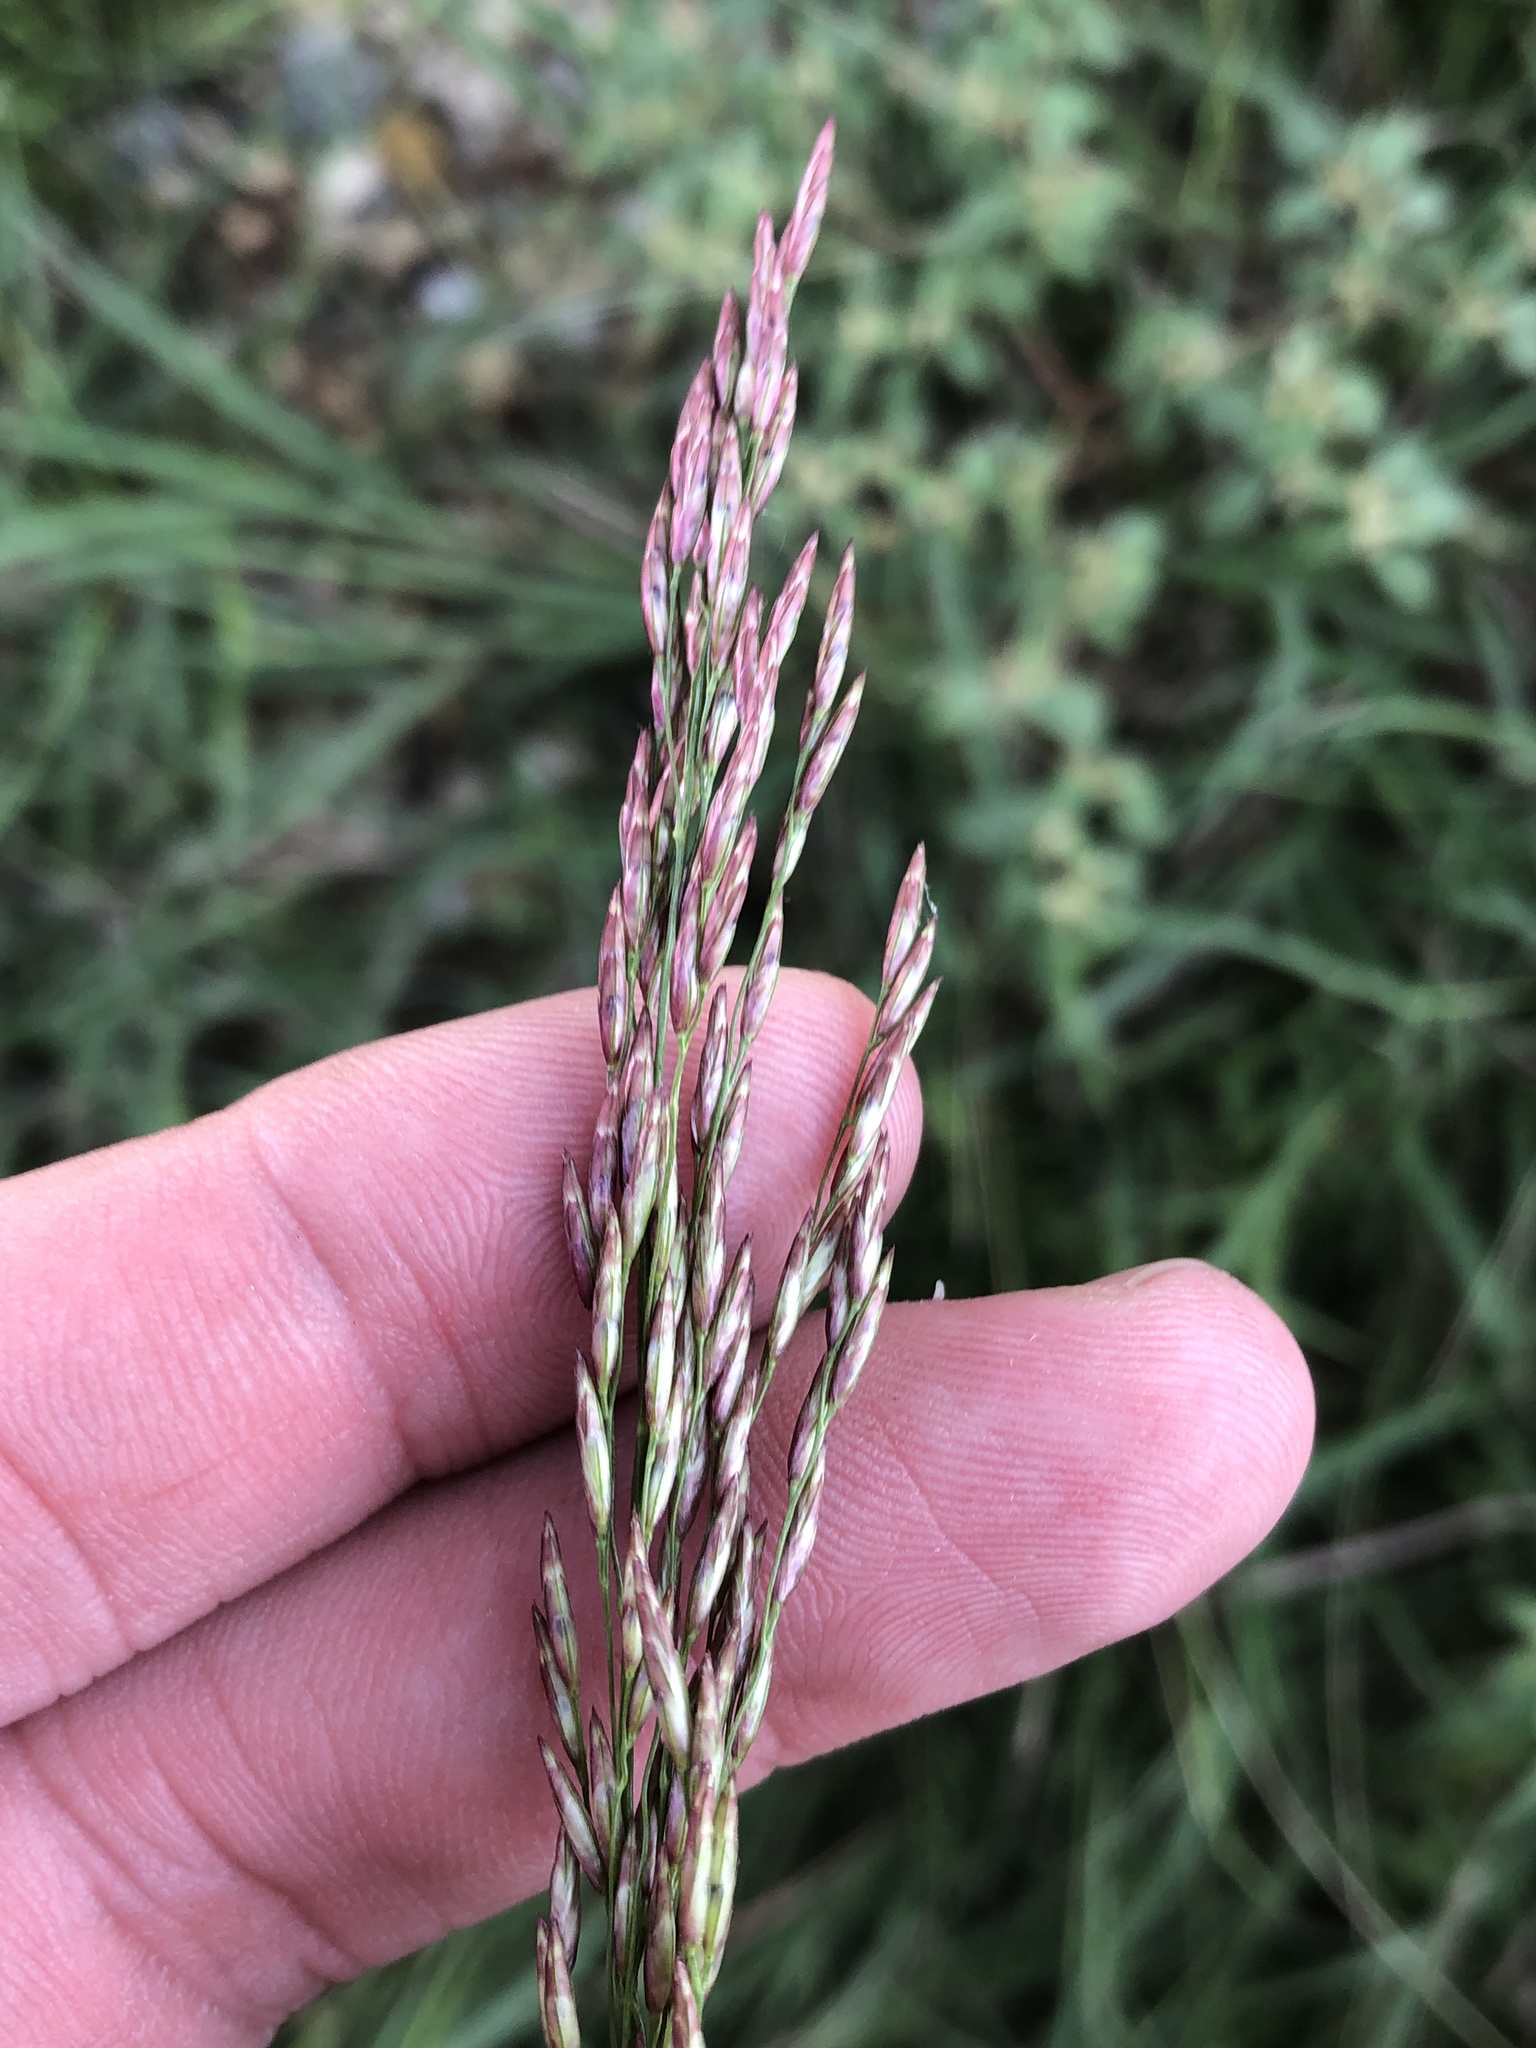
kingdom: Plantae
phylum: Tracheophyta
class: Liliopsida
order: Poales
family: Poaceae
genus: Tridens
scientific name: Tridens flavus
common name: Purpletop
